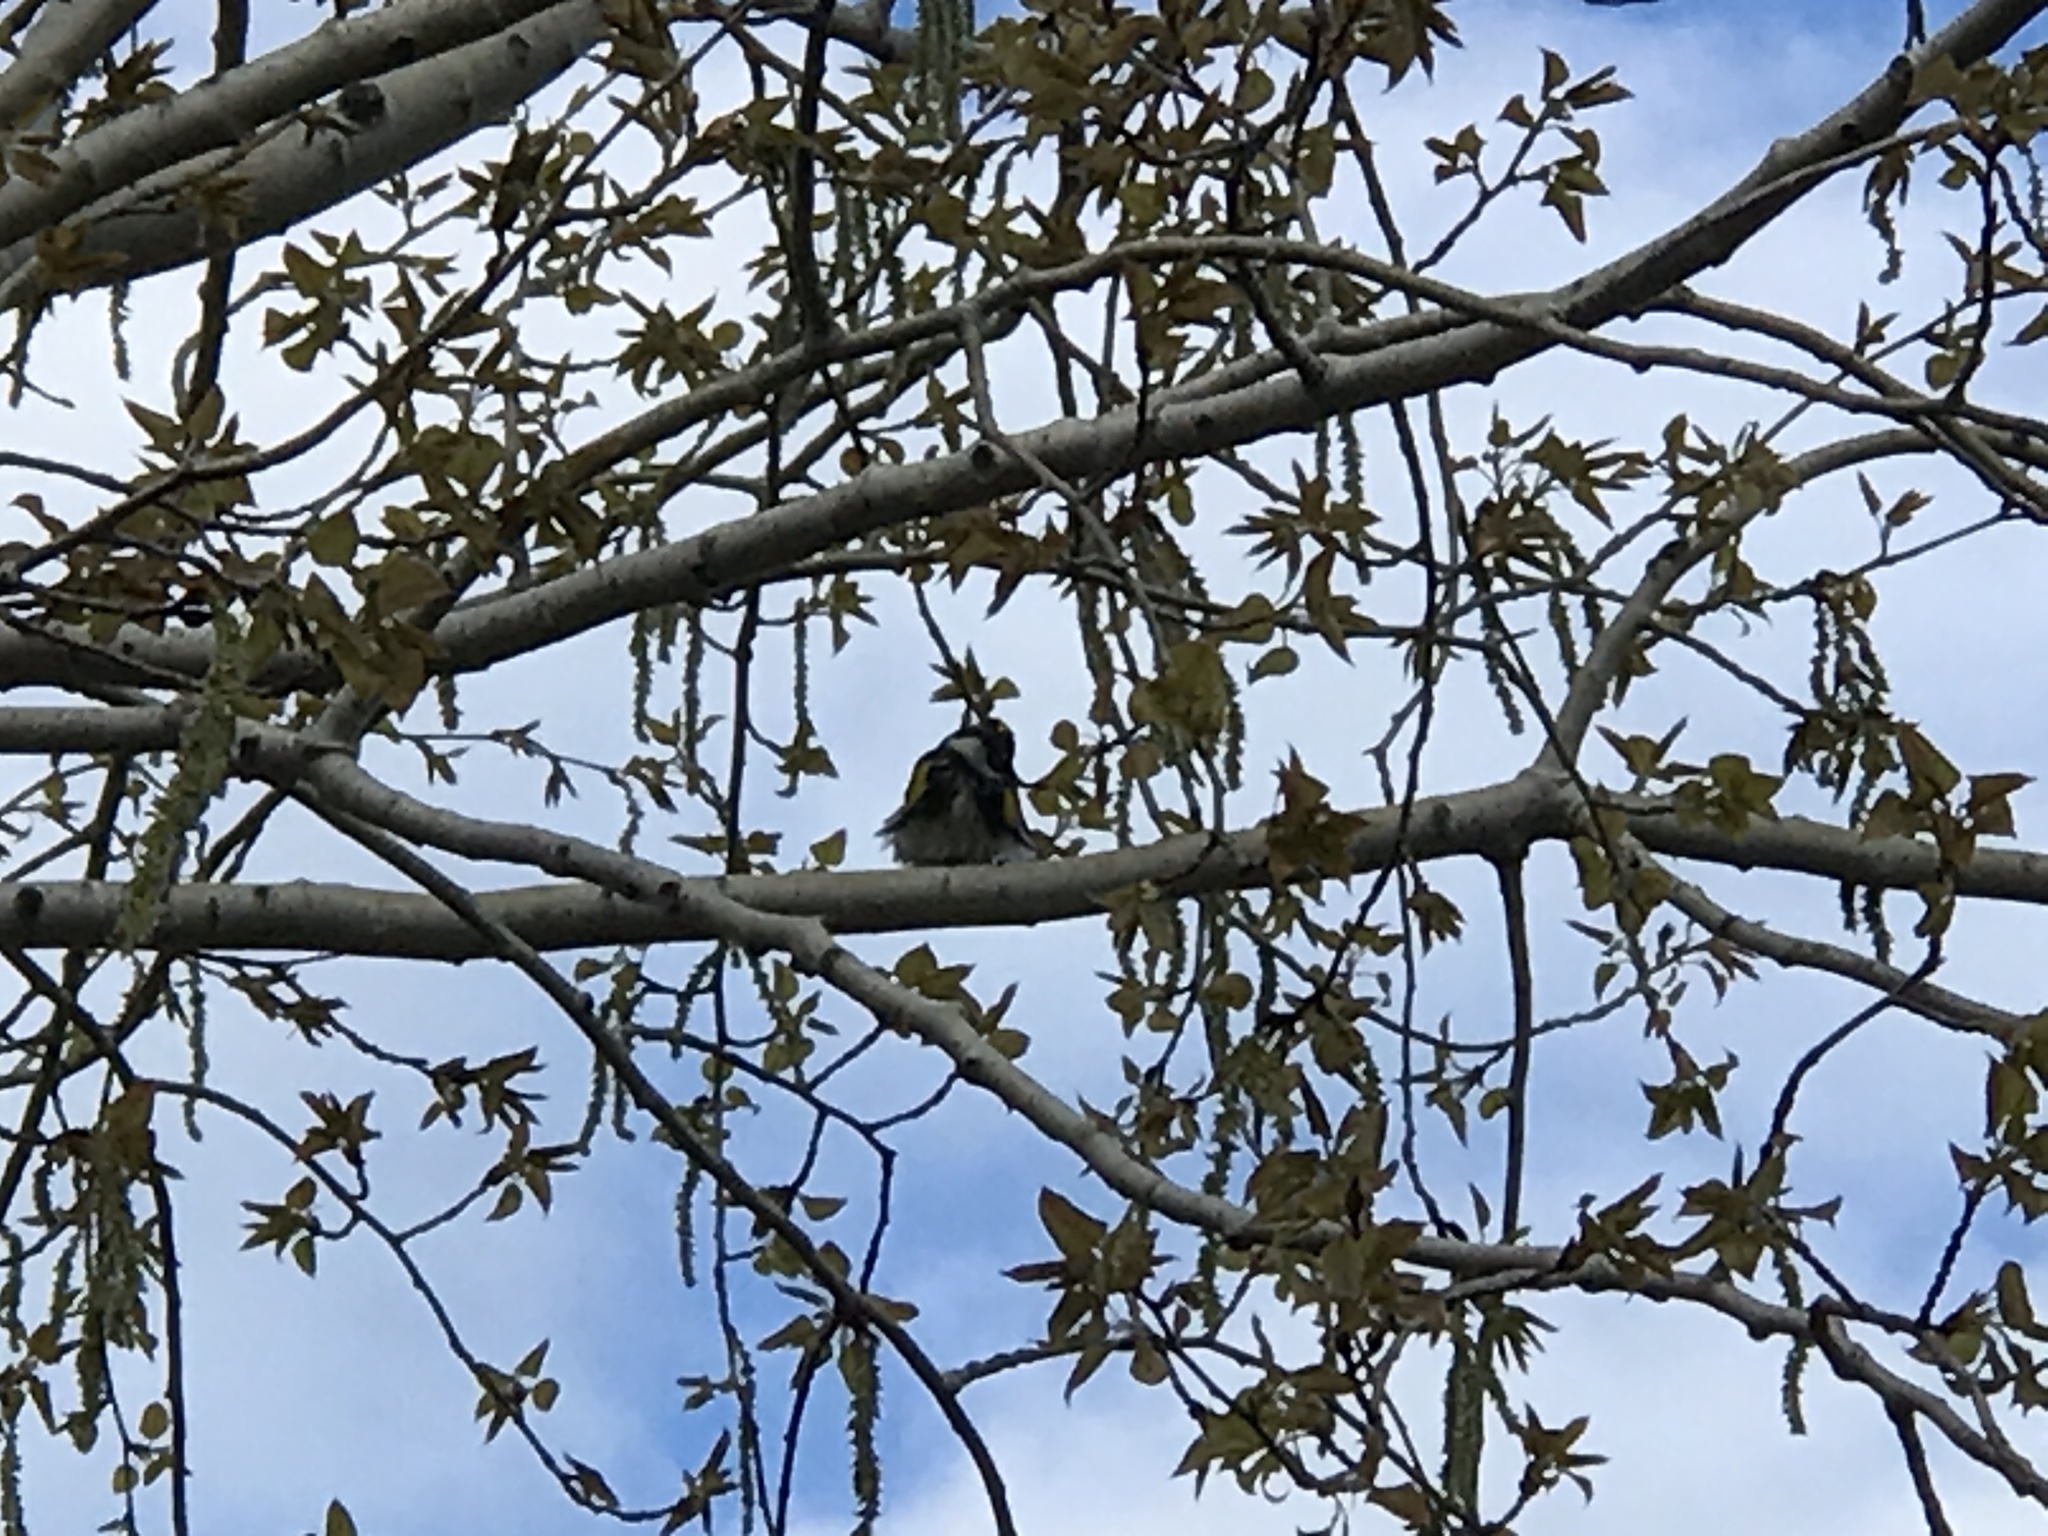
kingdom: Animalia
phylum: Chordata
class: Aves
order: Passeriformes
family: Parulidae
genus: Setophaga
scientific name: Setophaga coronata
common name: Myrtle warbler
